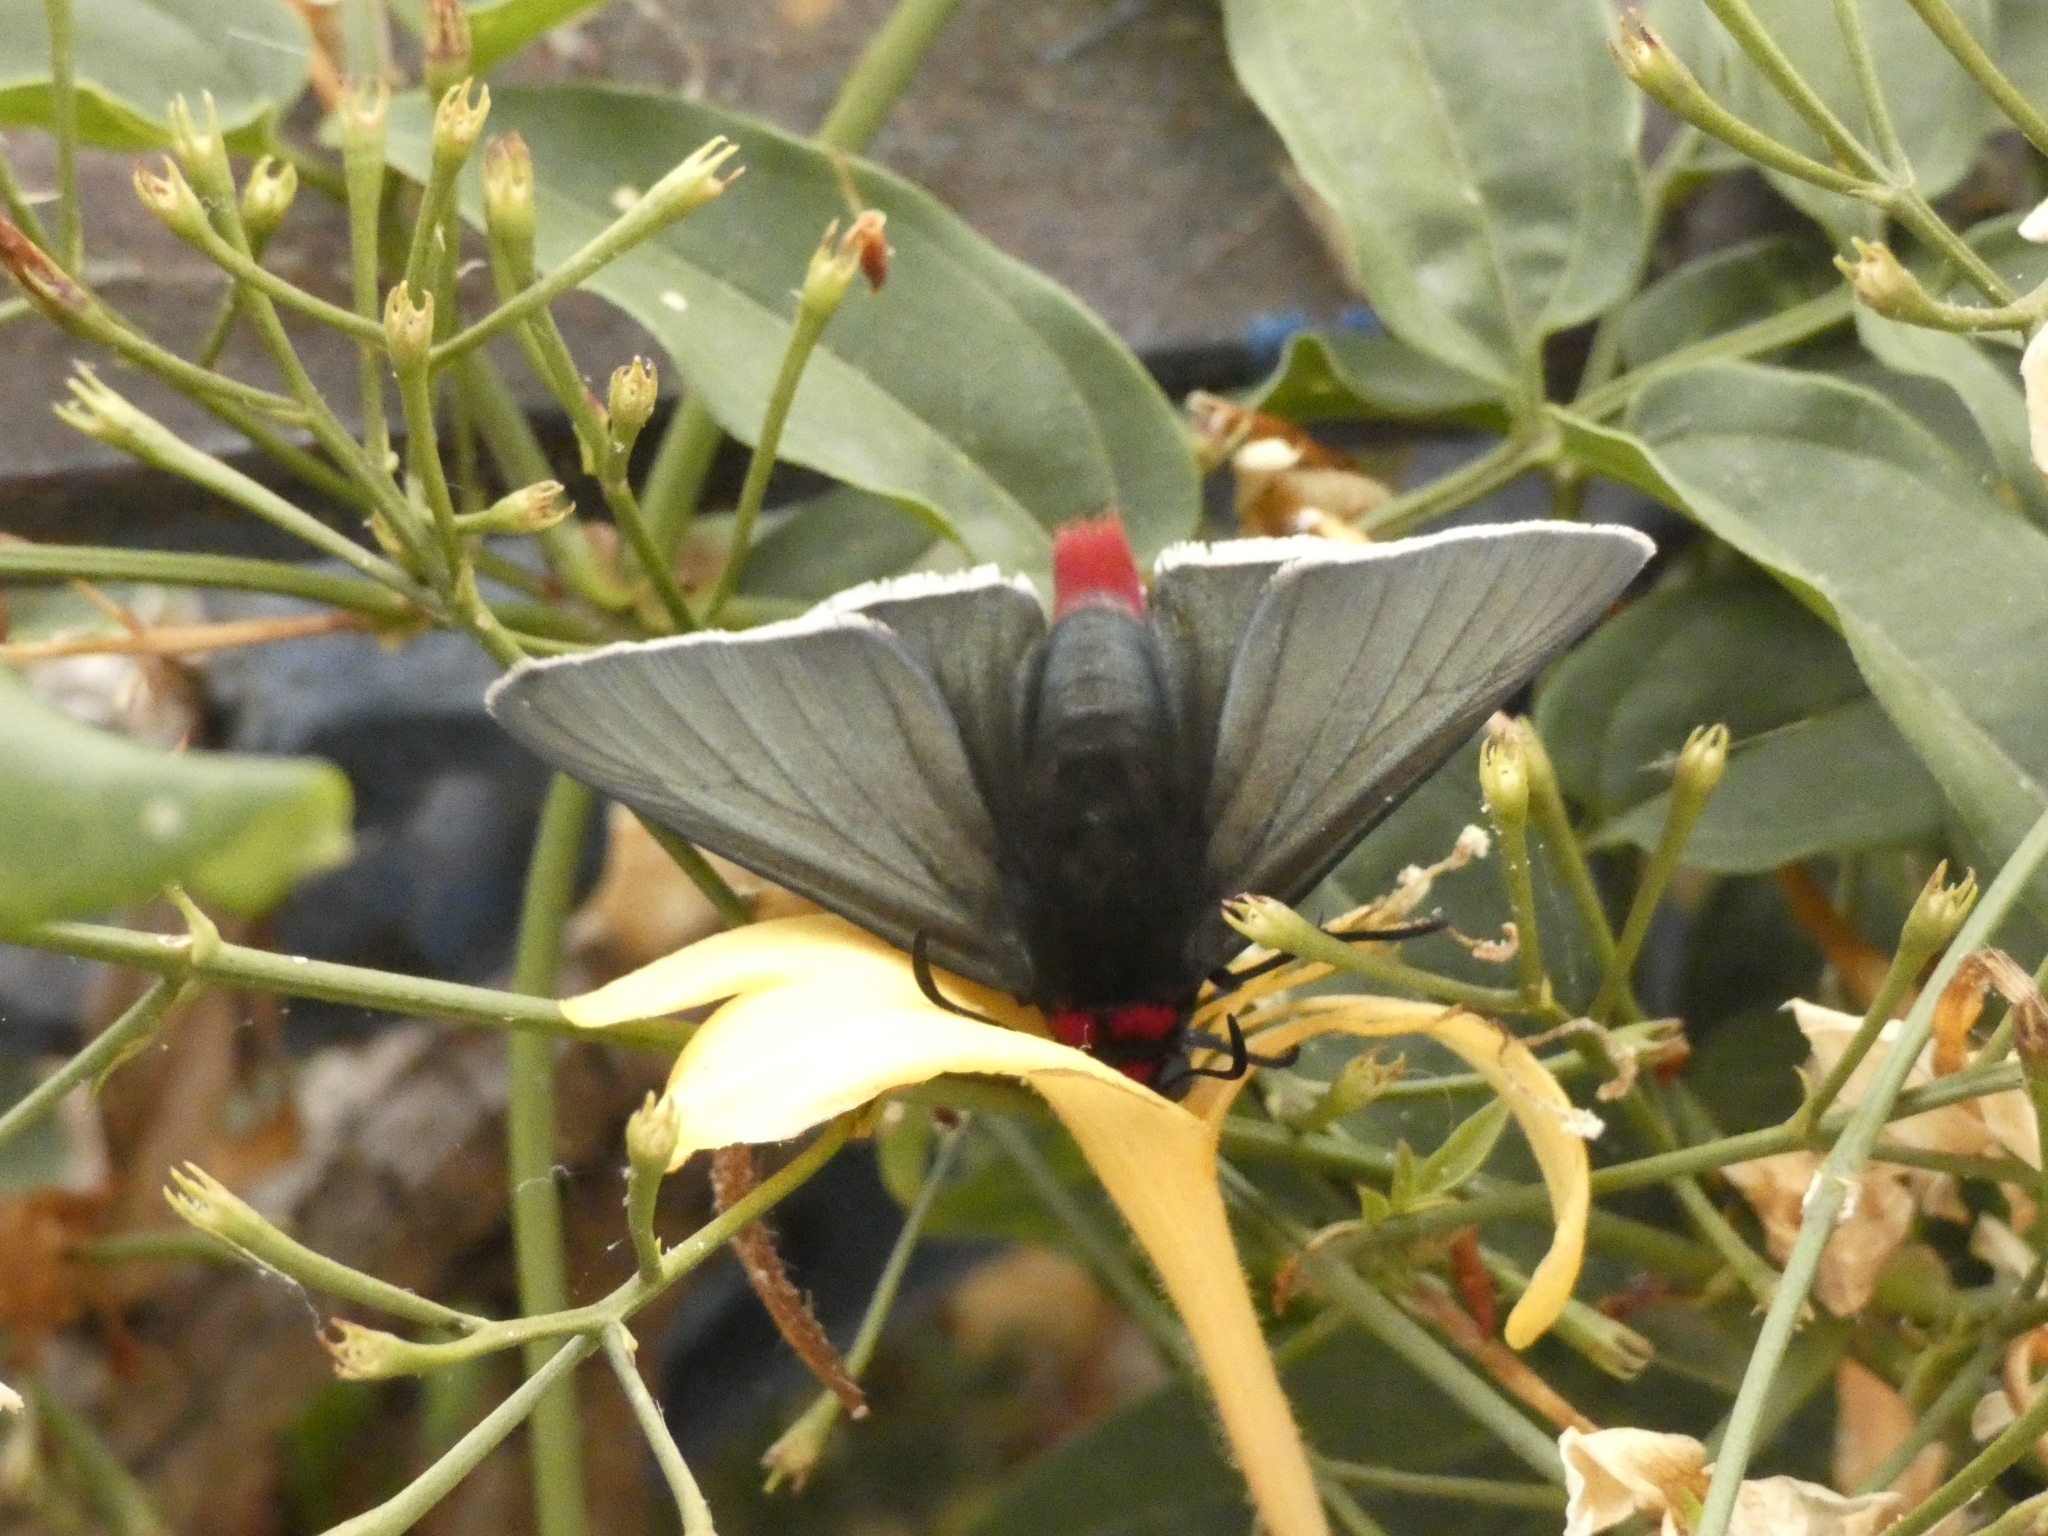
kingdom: Animalia
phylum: Arthropoda
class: Insecta
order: Lepidoptera
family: Hesperiidae
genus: Pyrrhopyge
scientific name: Pyrrhopyge charybdis
